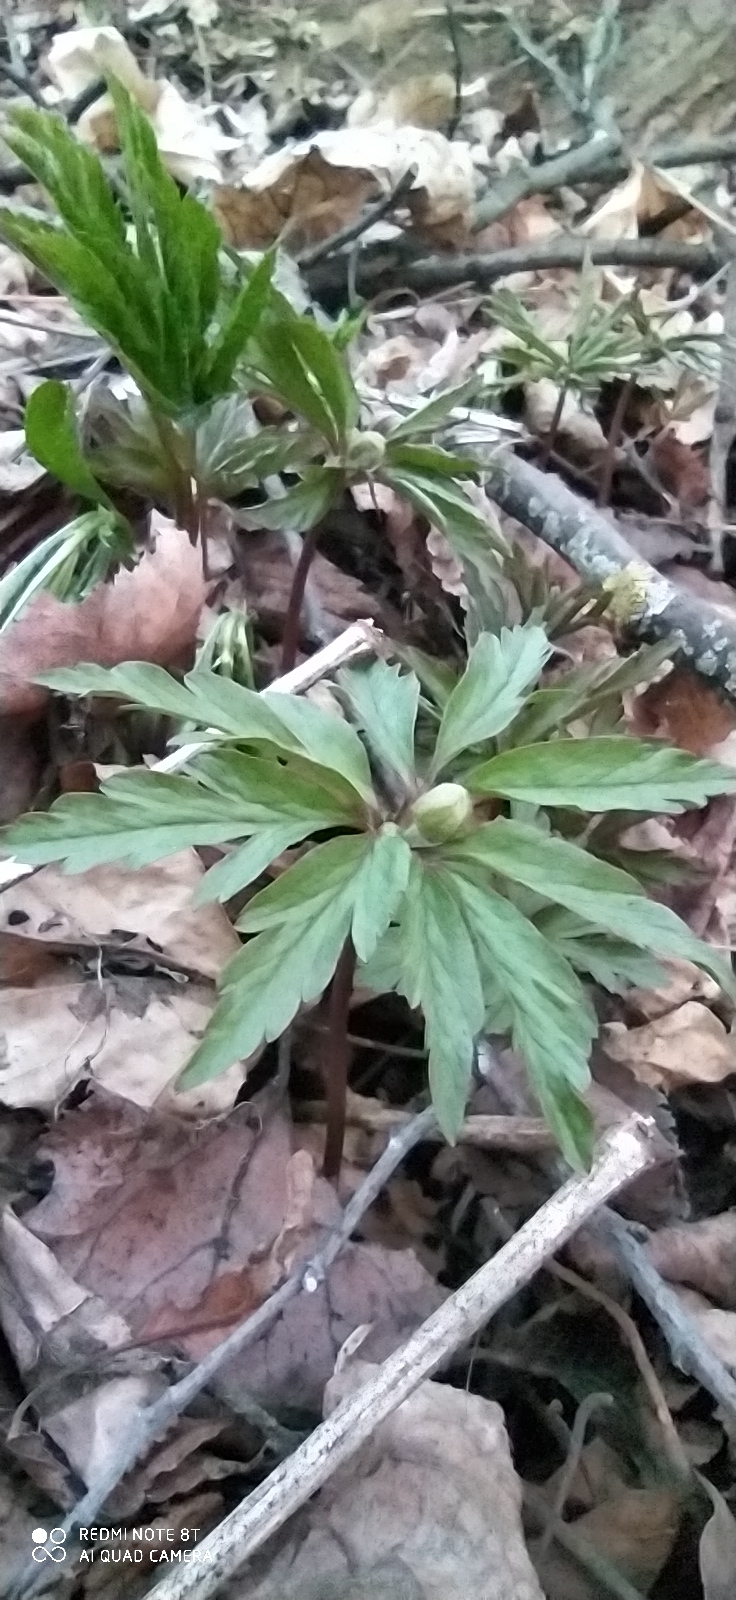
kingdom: Plantae
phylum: Tracheophyta
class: Magnoliopsida
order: Ranunculales
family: Ranunculaceae
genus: Anemone
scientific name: Anemone ranunculoides
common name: Yellow anemone
